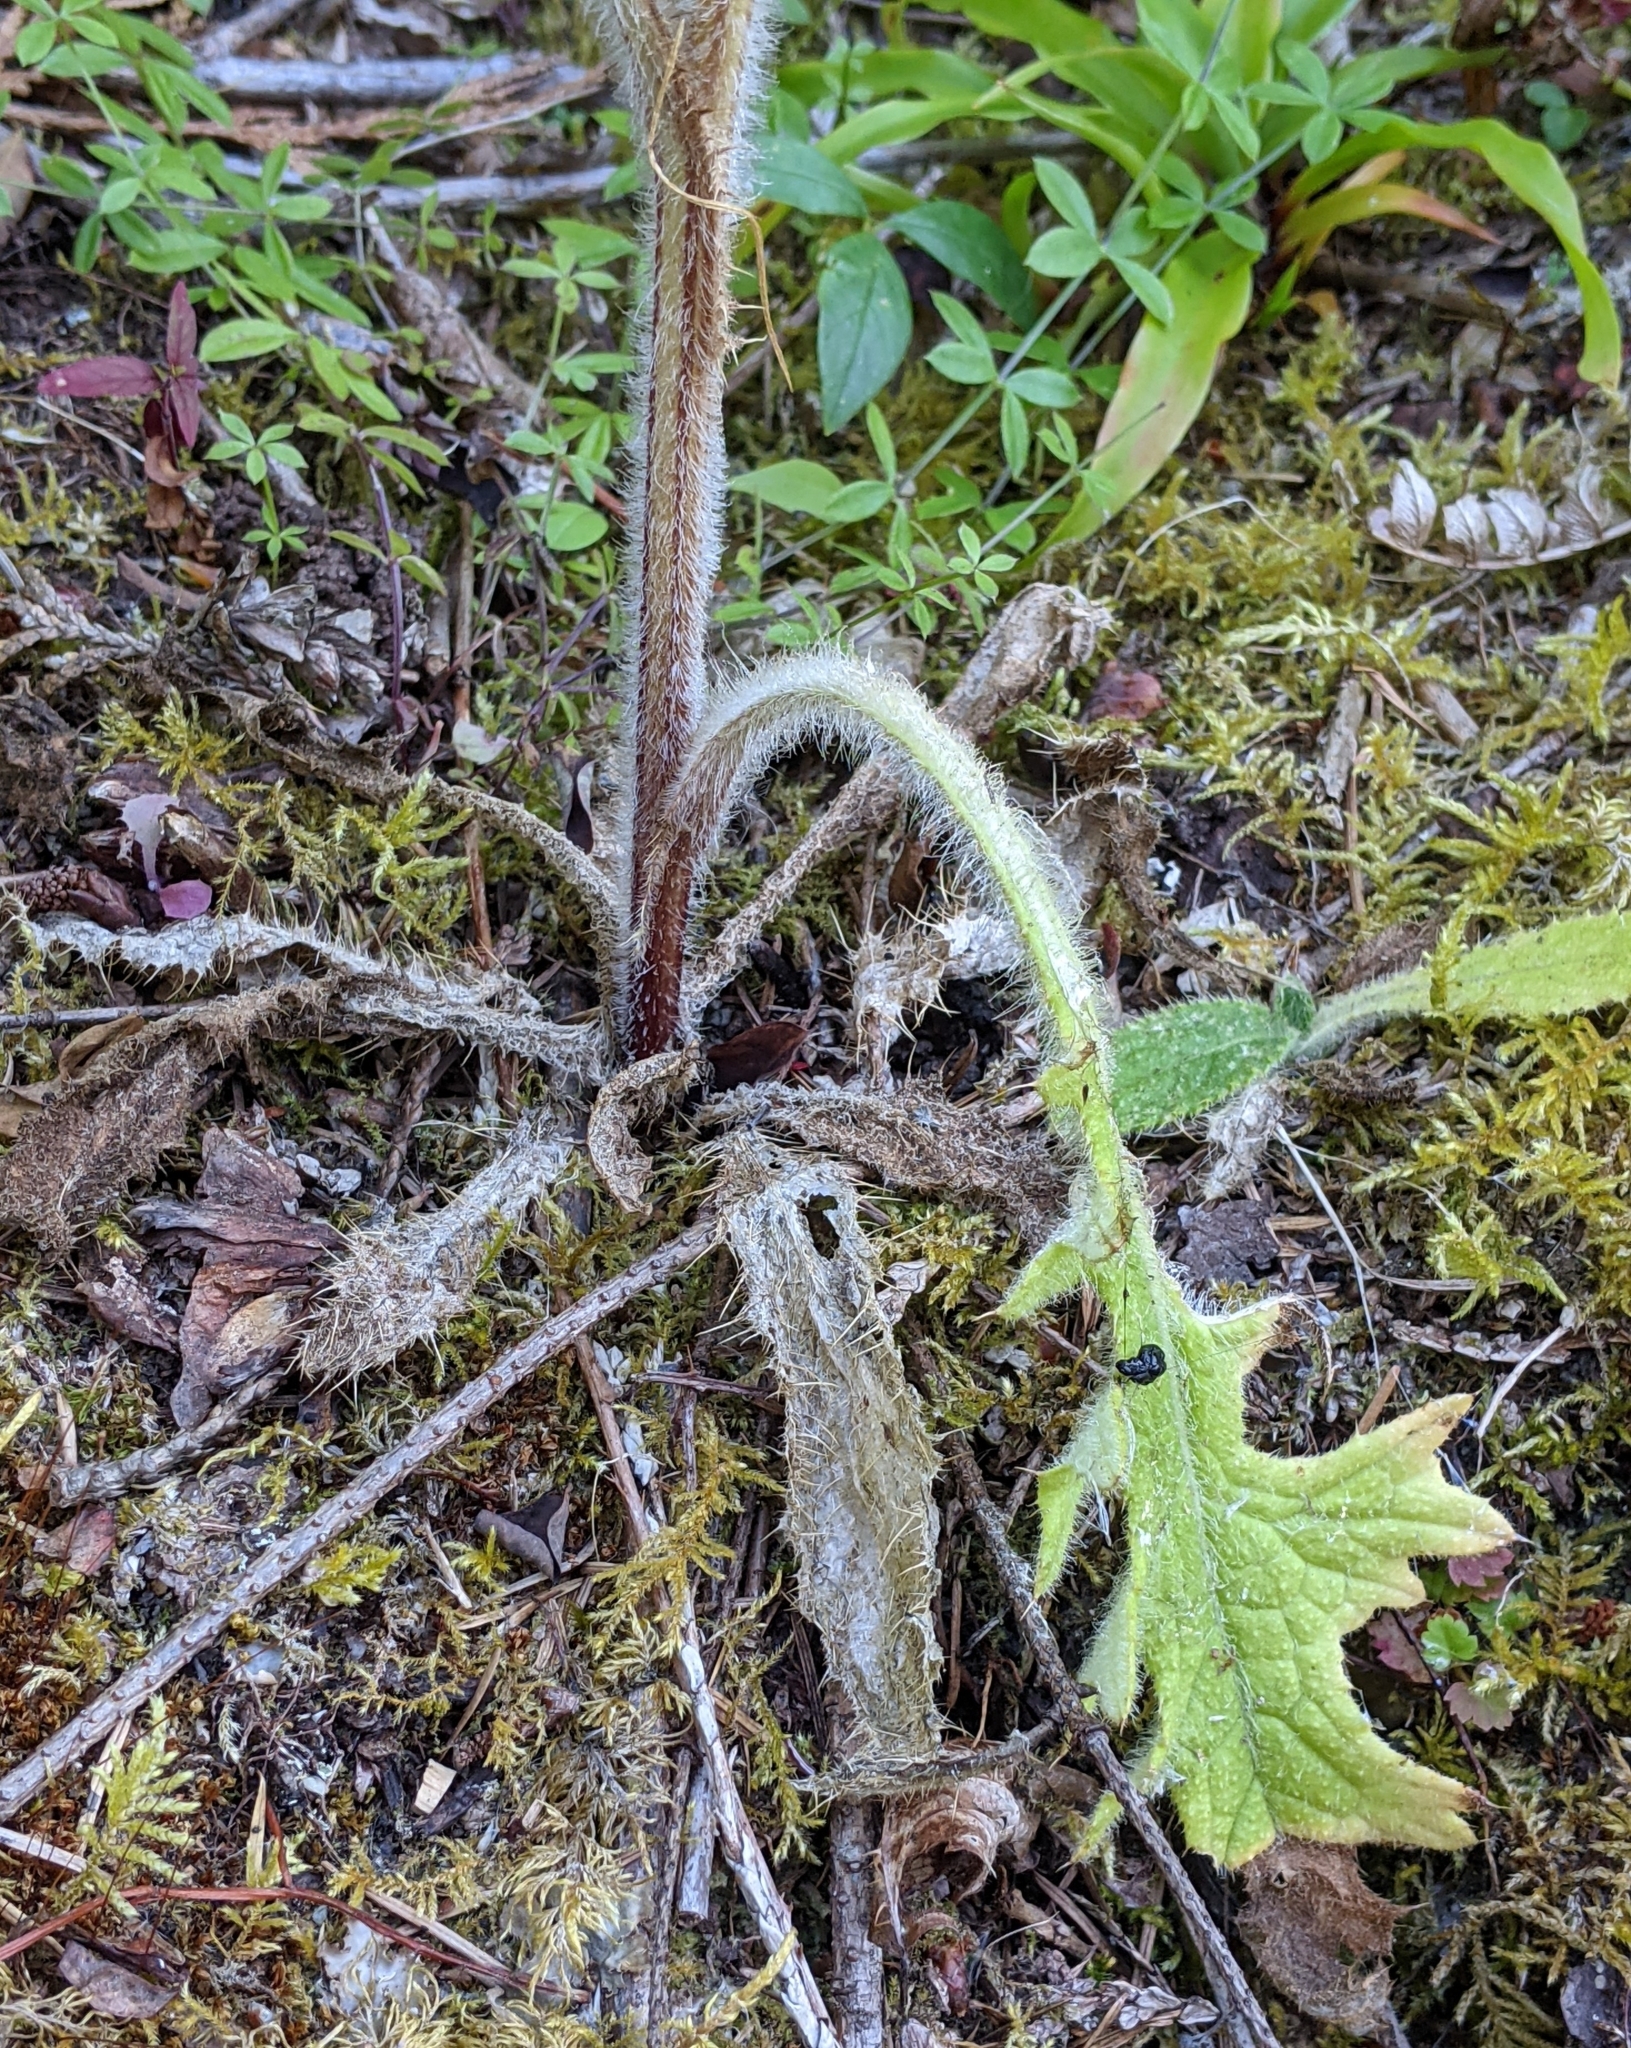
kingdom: Plantae
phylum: Tracheophyta
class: Magnoliopsida
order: Asterales
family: Asteraceae
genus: Cirsium
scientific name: Cirsium vulgare
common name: Bull thistle
